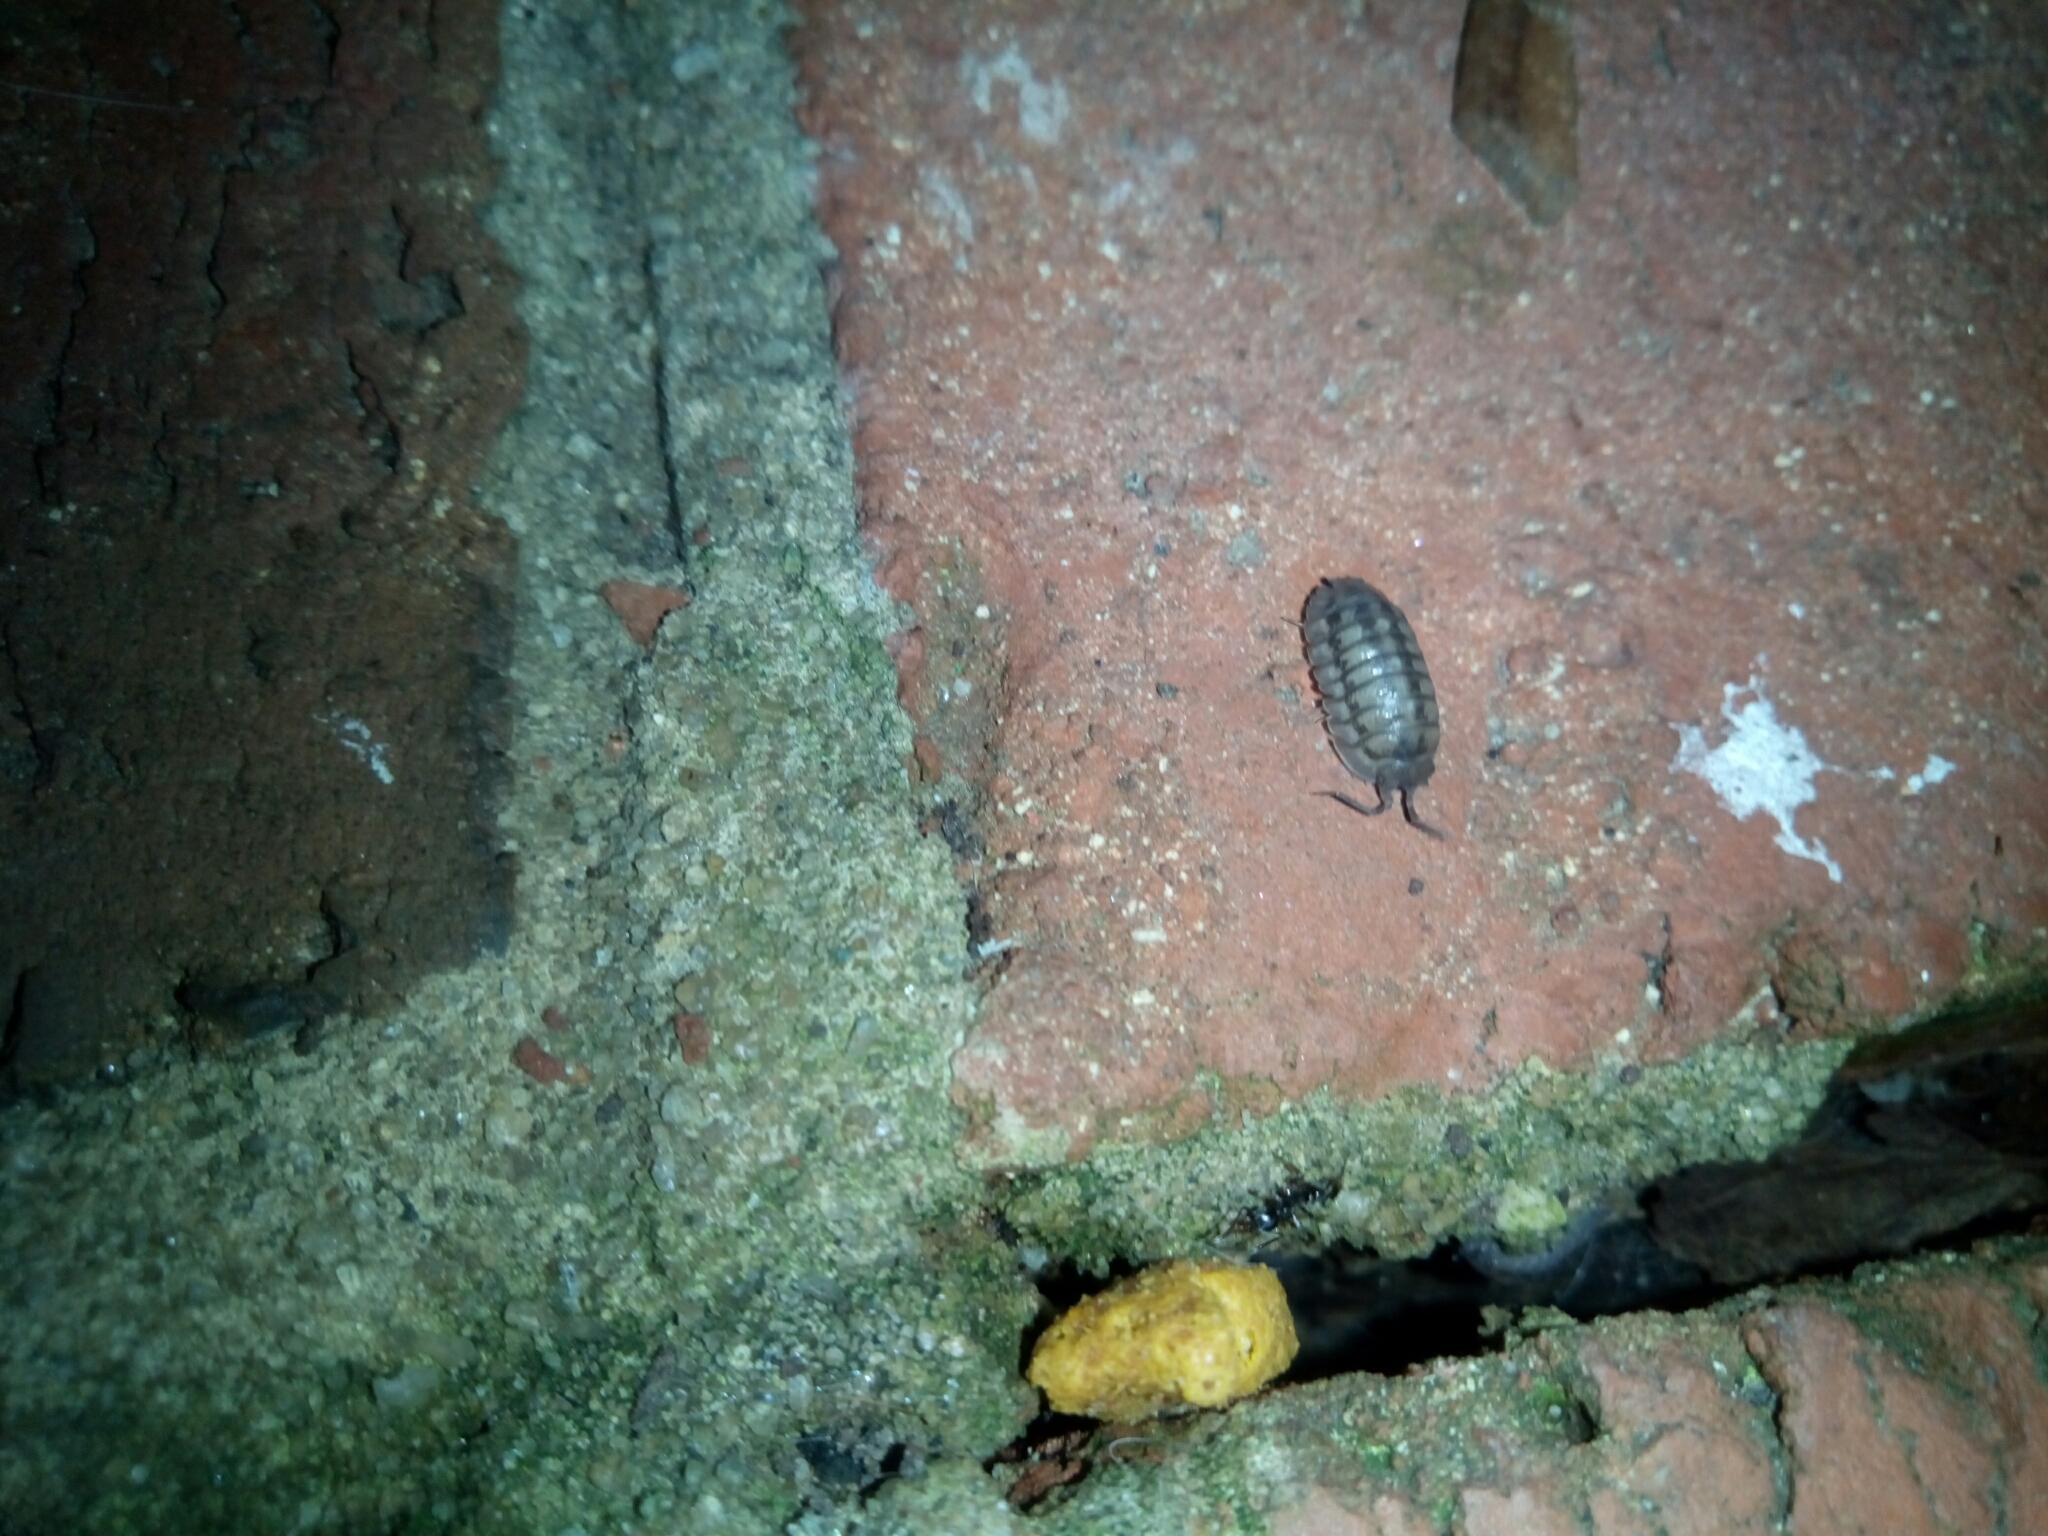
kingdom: Animalia
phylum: Arthropoda
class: Malacostraca
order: Isopoda
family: Armadillidiidae
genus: Armadillidium
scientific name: Armadillidium nasatum
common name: Isopod
